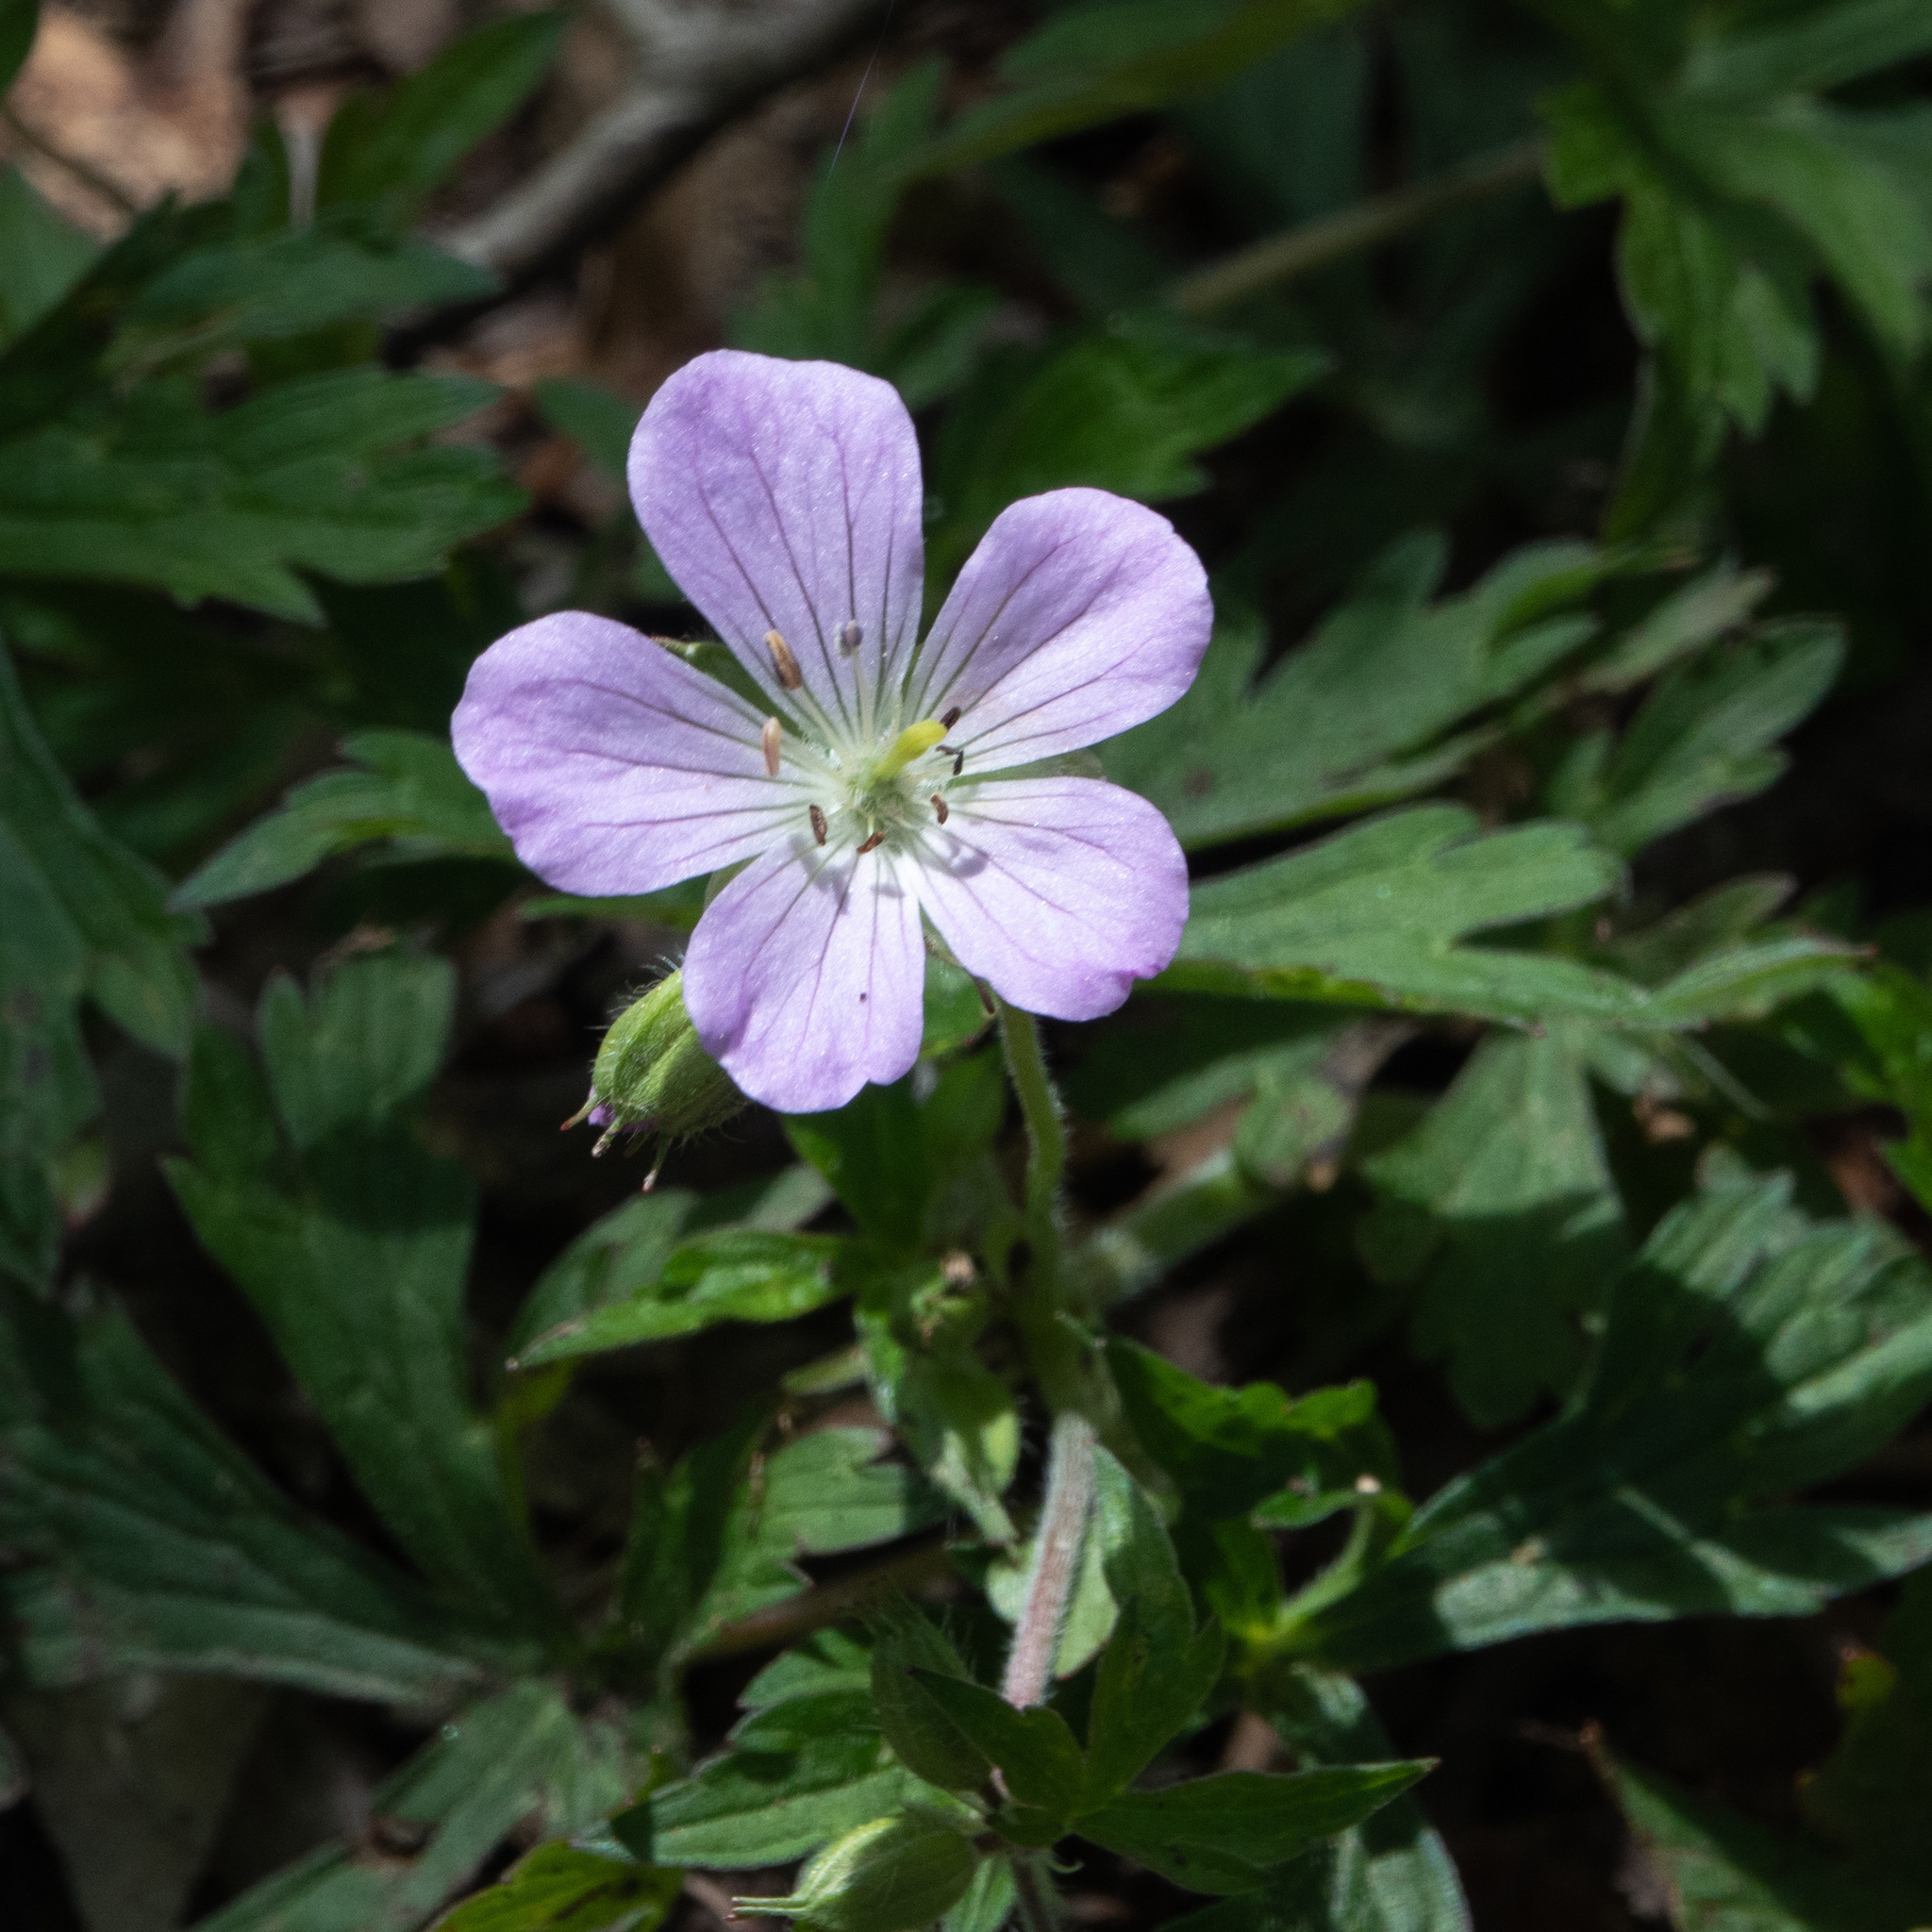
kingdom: Plantae
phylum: Tracheophyta
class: Magnoliopsida
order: Geraniales
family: Geraniaceae
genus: Geranium
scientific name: Geranium maculatum
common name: Spotted geranium
